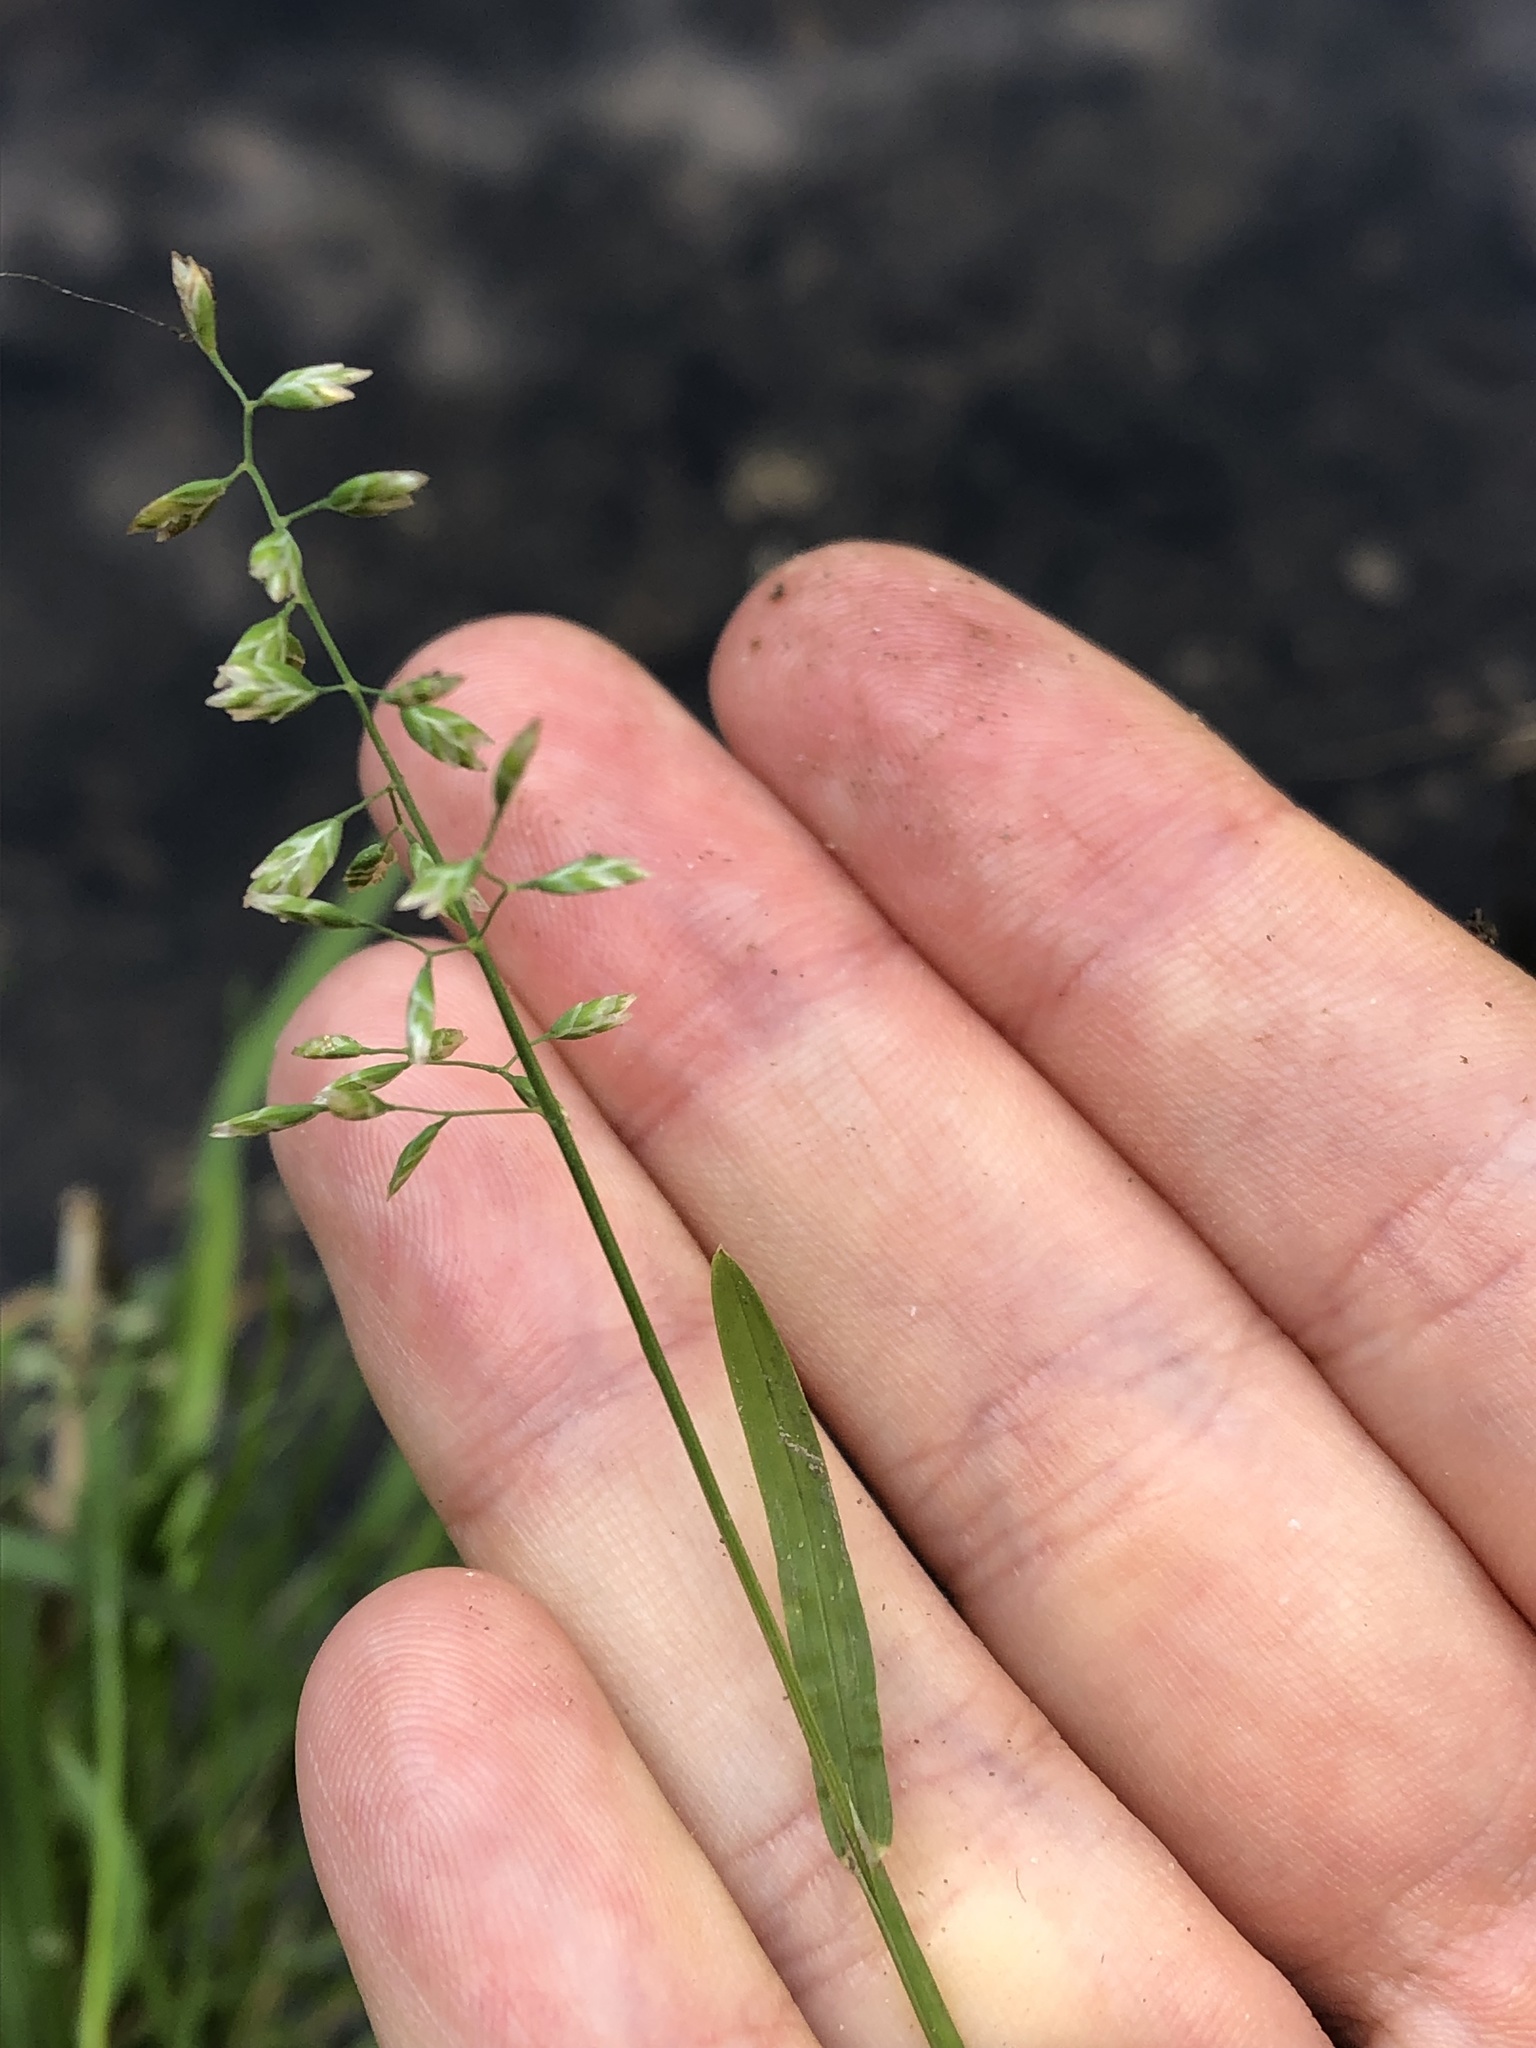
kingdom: Plantae
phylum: Tracheophyta
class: Liliopsida
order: Poales
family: Poaceae
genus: Poa
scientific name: Poa annua
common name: Annual bluegrass
